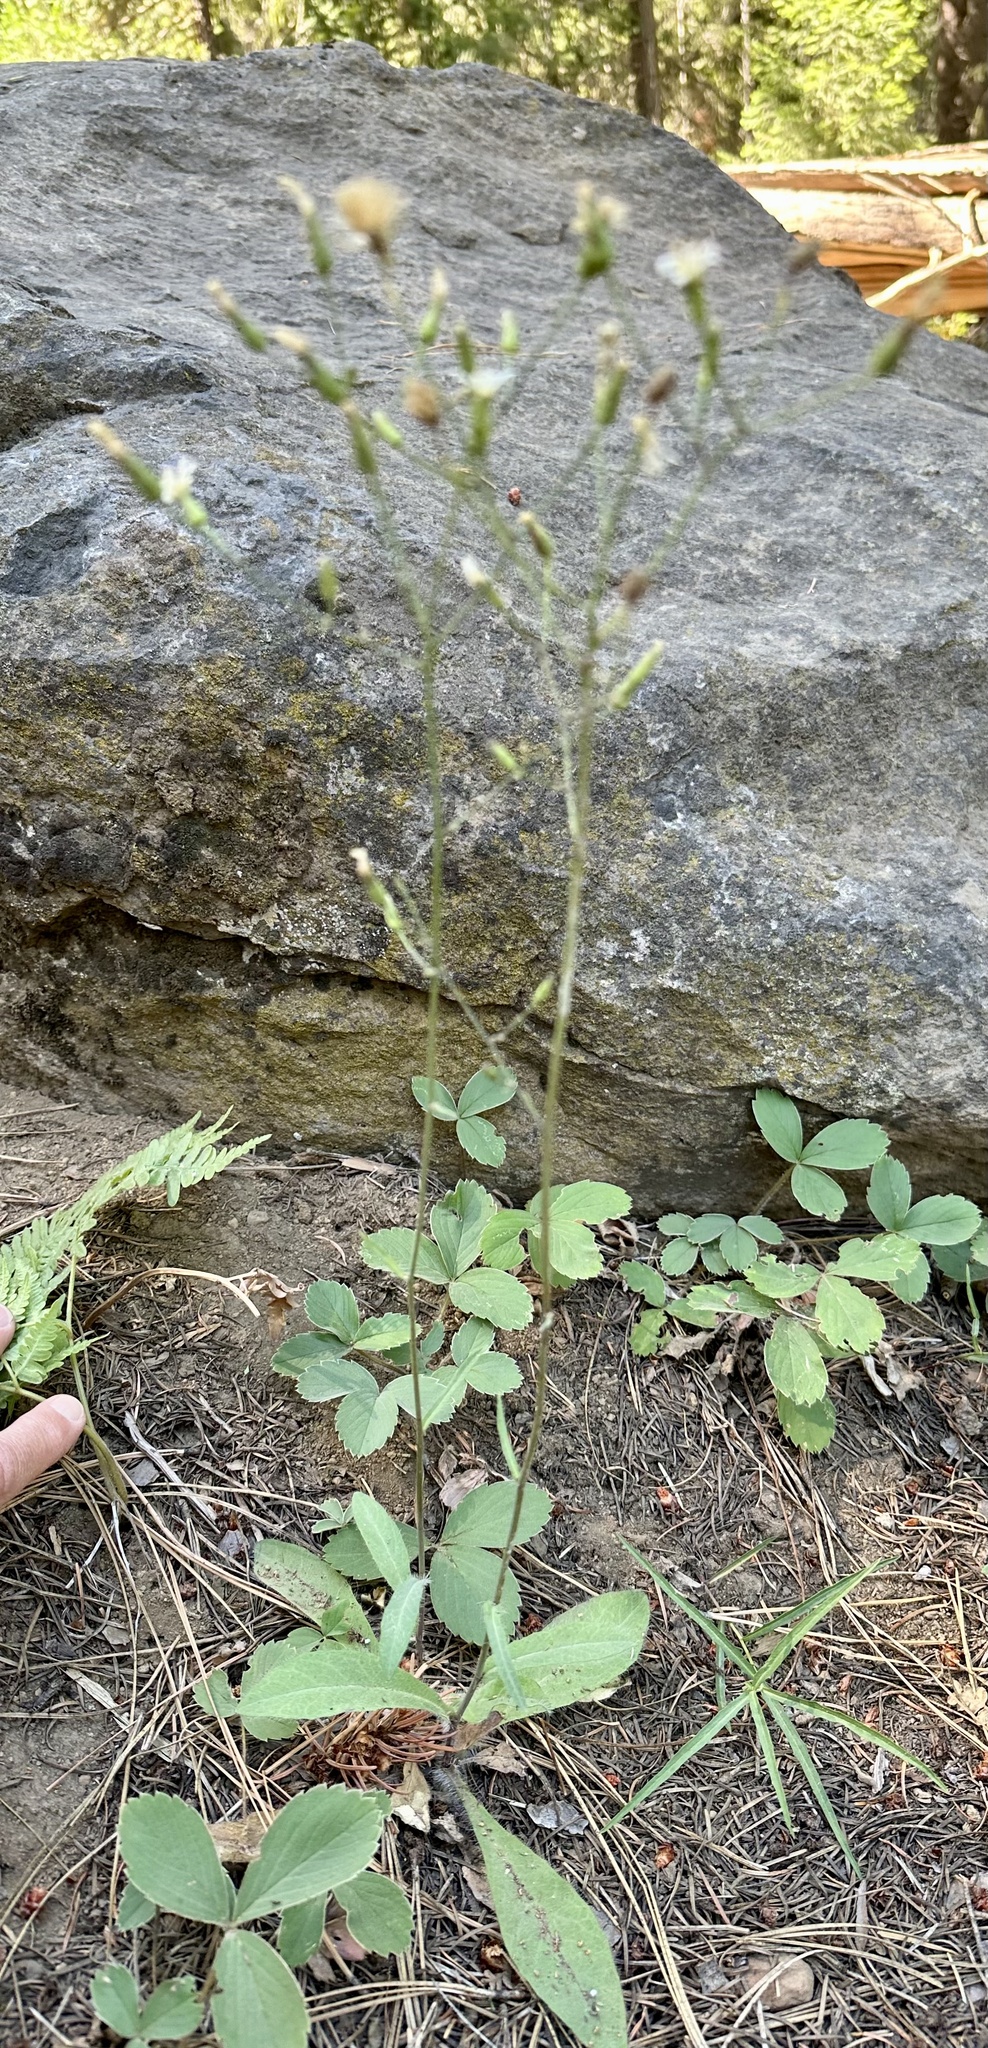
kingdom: Plantae
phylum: Tracheophyta
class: Magnoliopsida
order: Asterales
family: Asteraceae
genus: Hieracium
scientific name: Hieracium albiflorum
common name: White hawkweed
